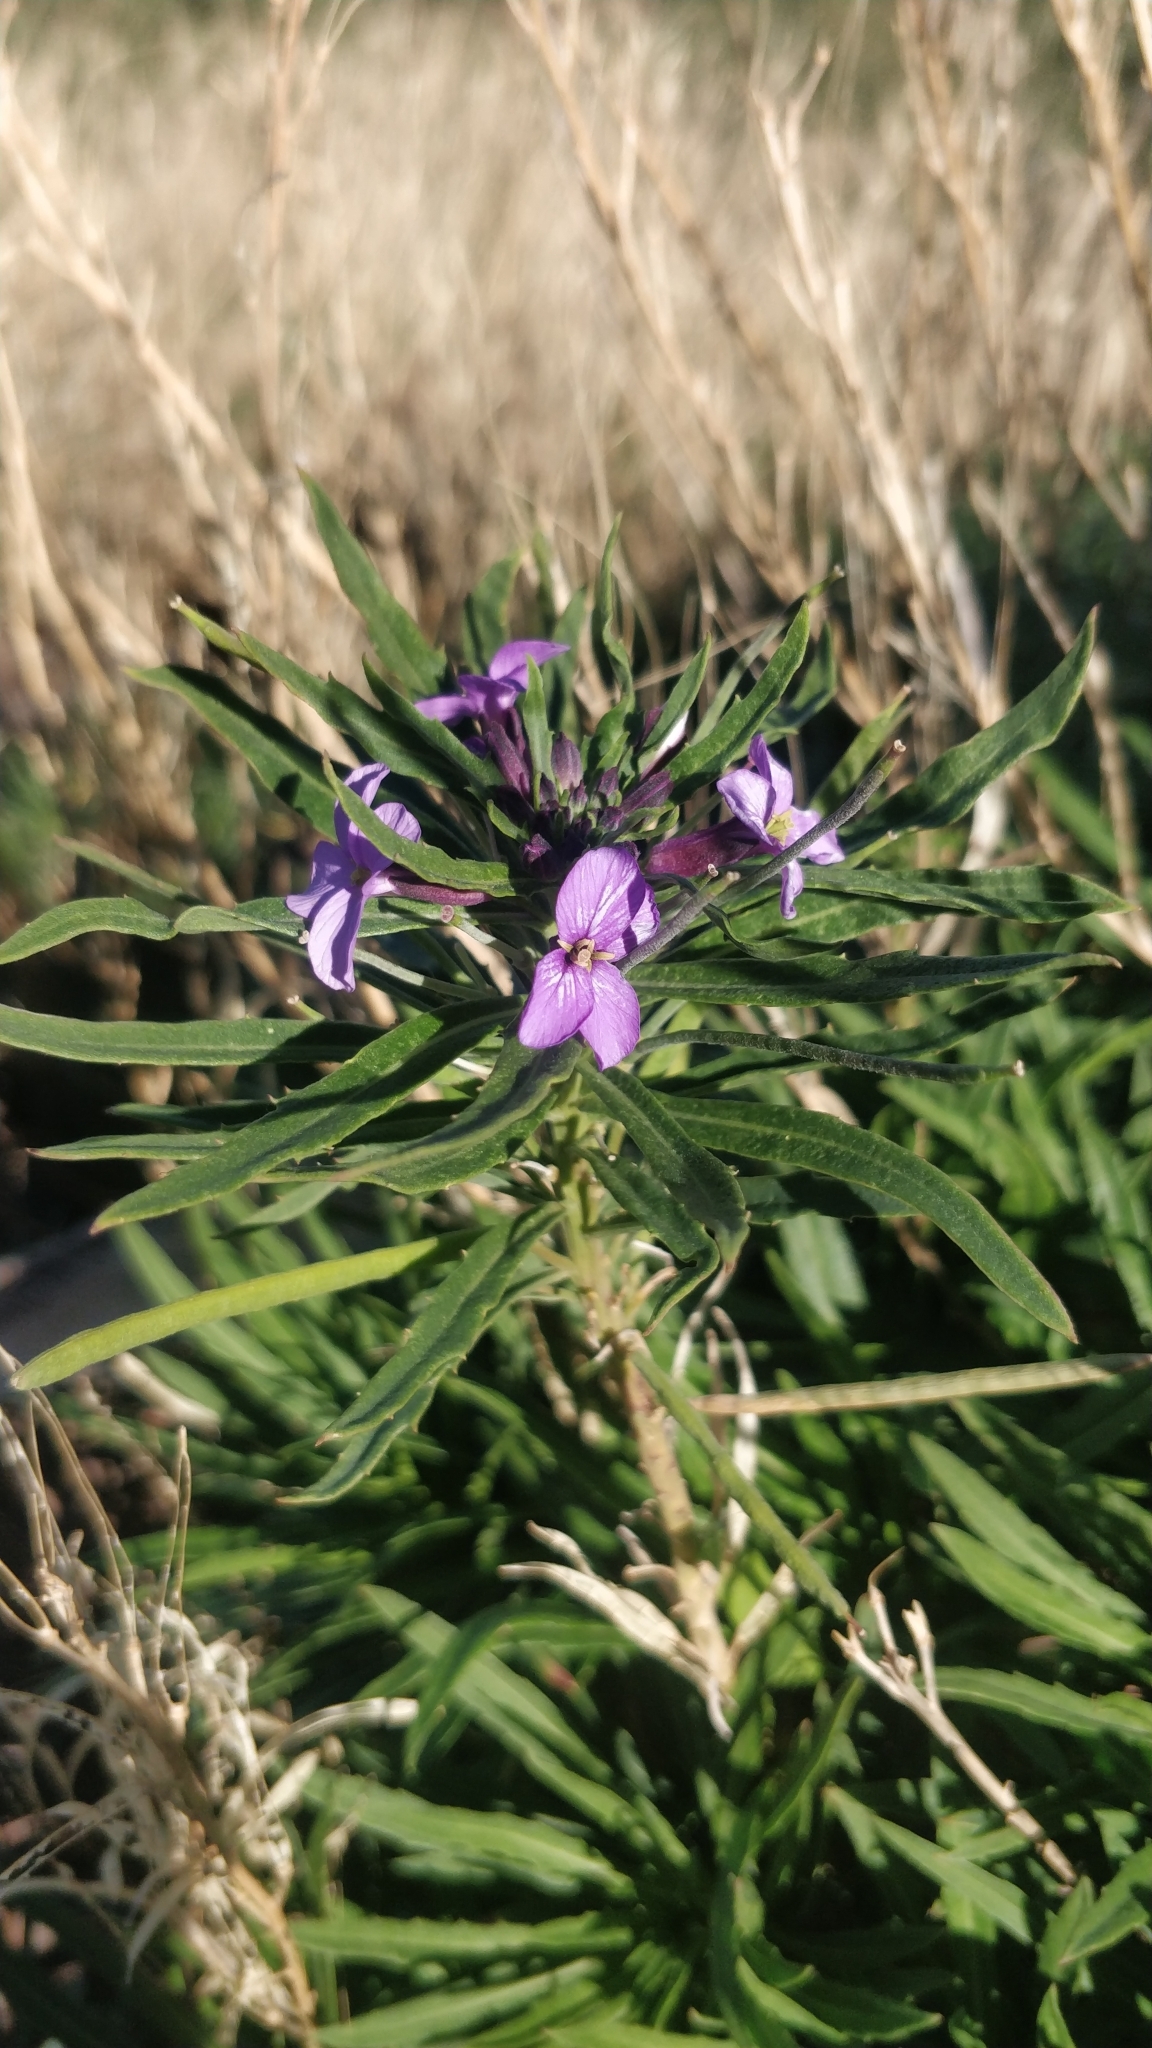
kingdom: Plantae
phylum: Tracheophyta
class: Magnoliopsida
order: Brassicales
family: Brassicaceae
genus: Erysimum
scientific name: Erysimum scoparium
